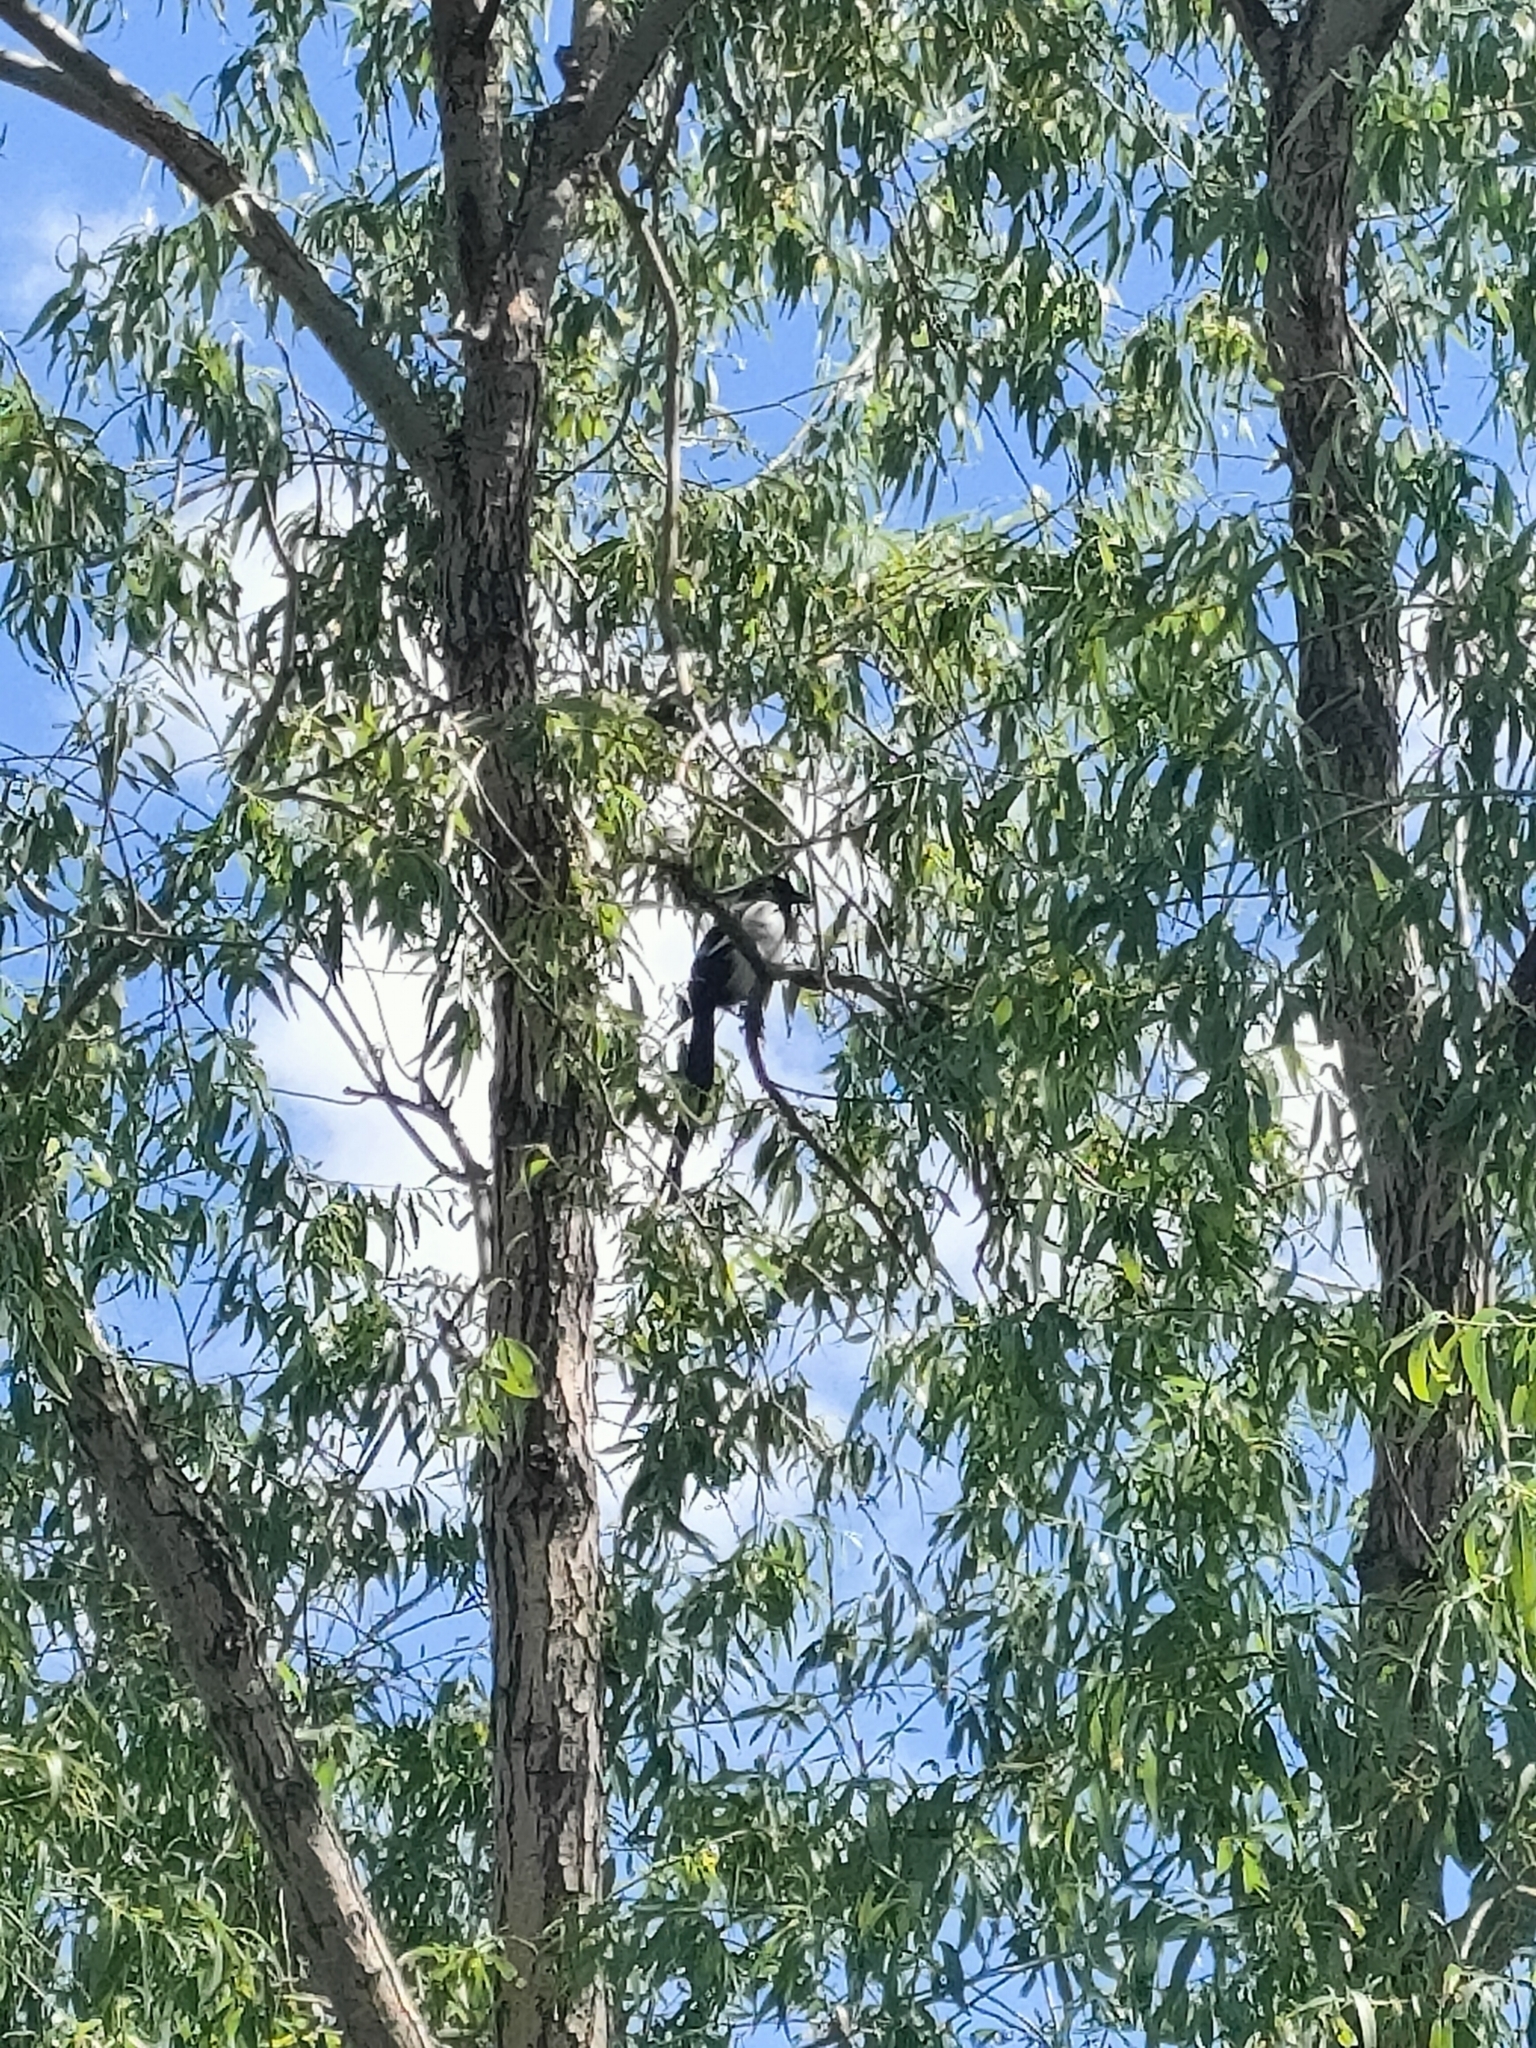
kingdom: Animalia
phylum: Chordata
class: Aves
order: Passeriformes
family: Corvidae
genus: Pica
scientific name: Pica pica
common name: Eurasian magpie
